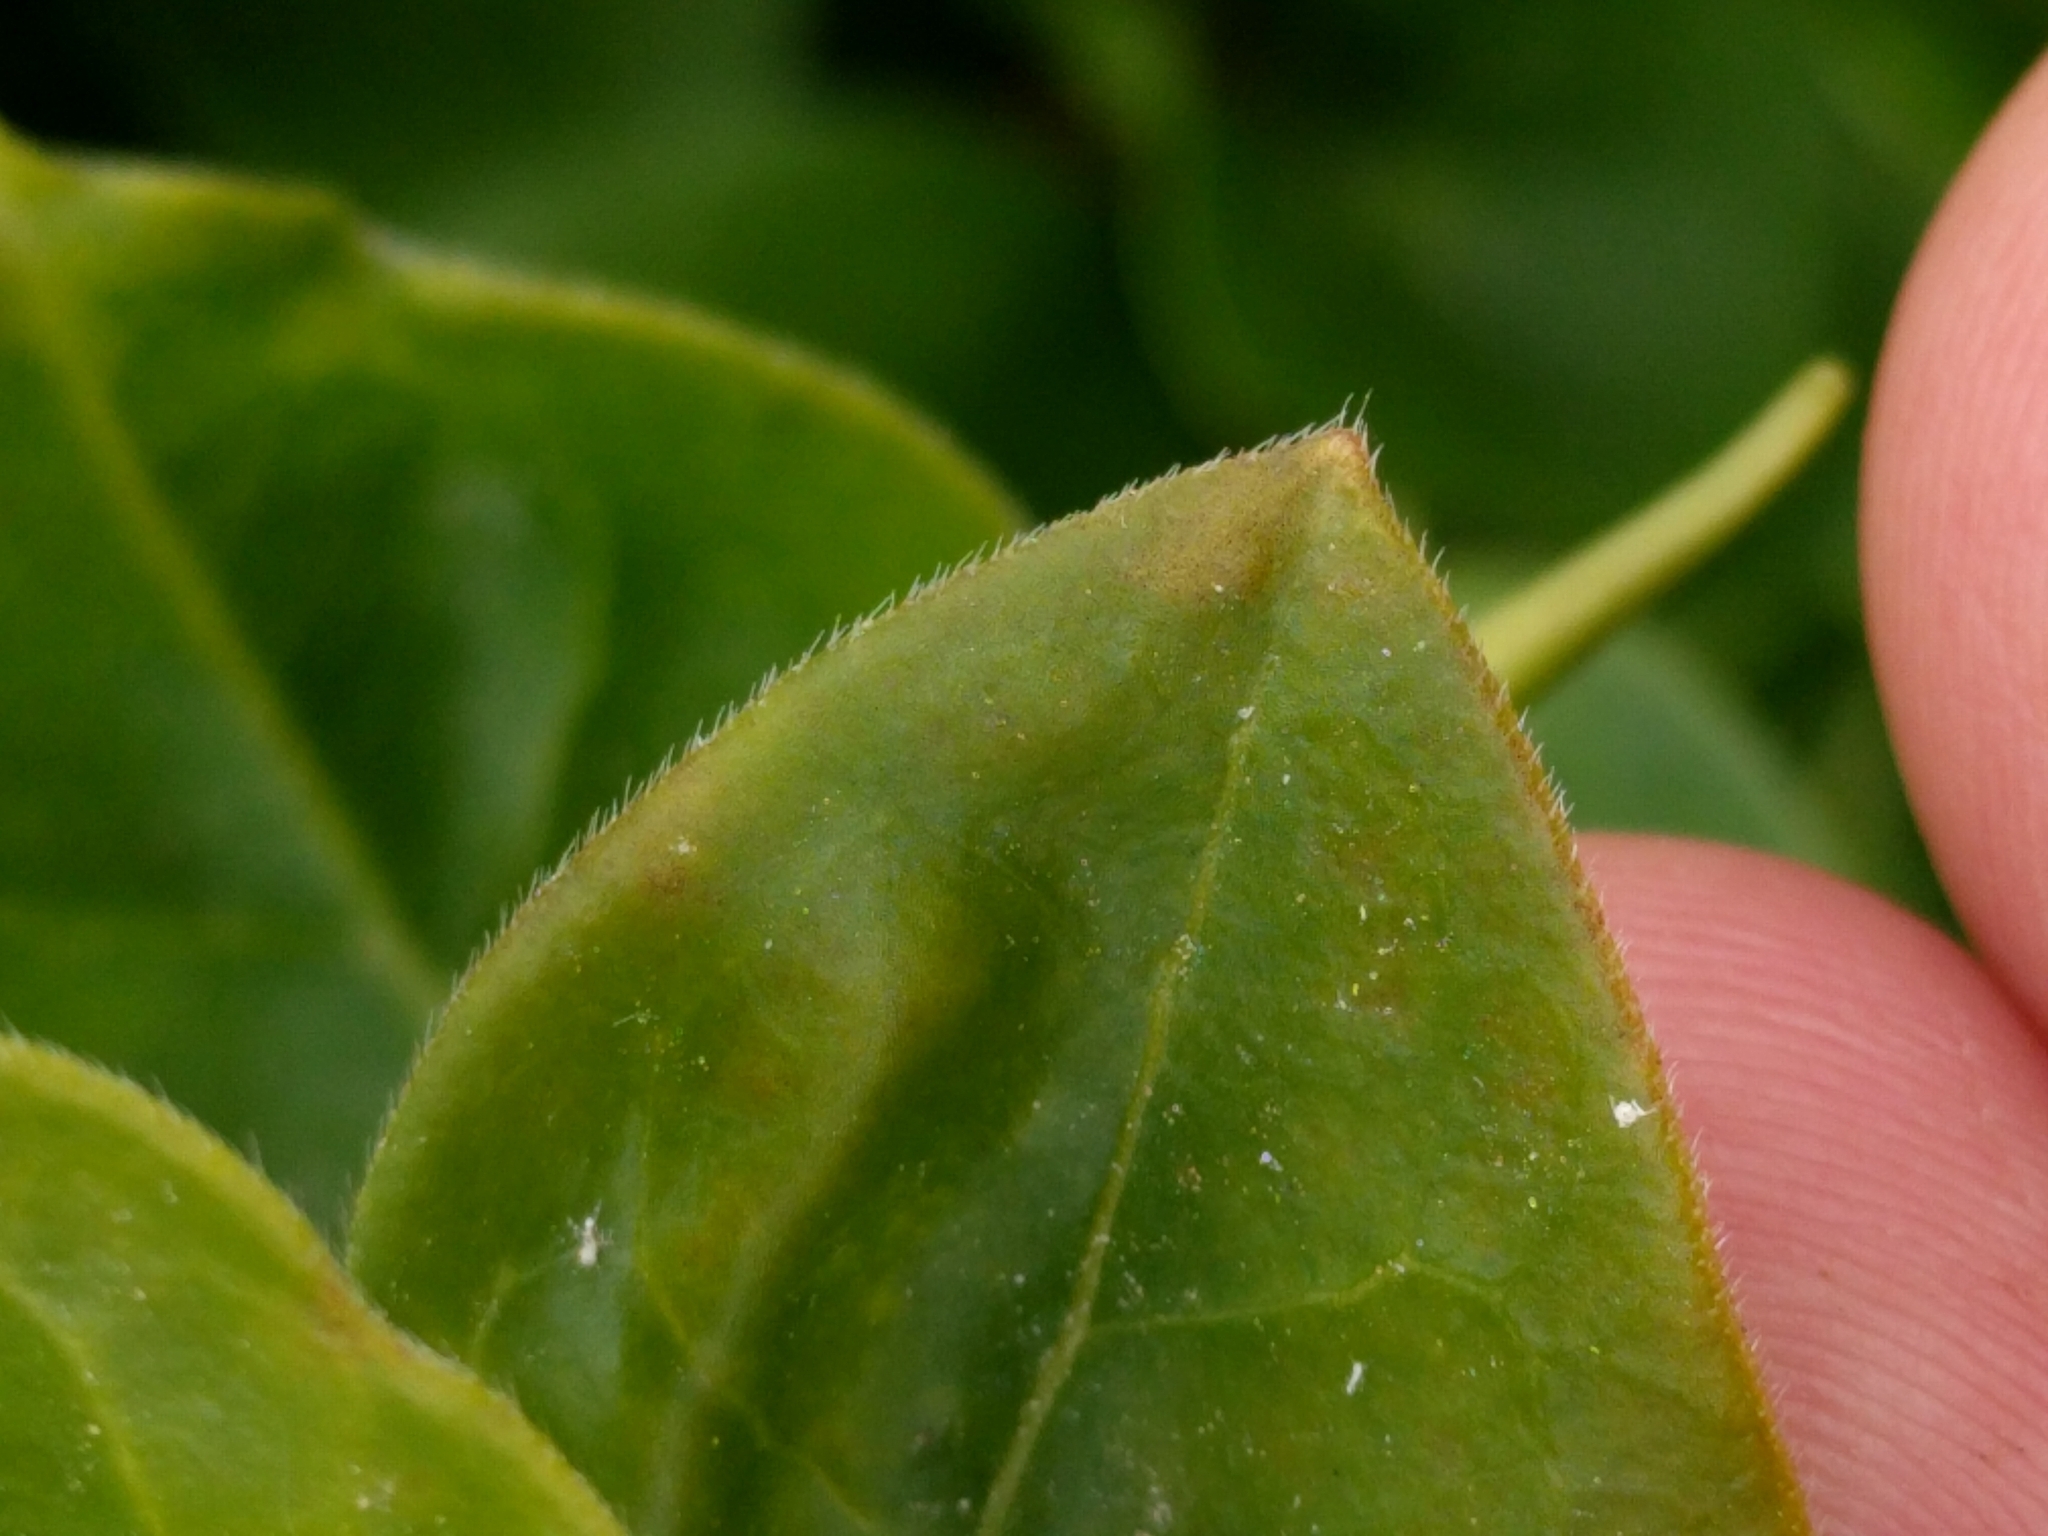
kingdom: Plantae
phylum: Tracheophyta
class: Magnoliopsida
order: Gentianales
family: Apocynaceae
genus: Vinca
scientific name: Vinca major
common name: Greater periwinkle
